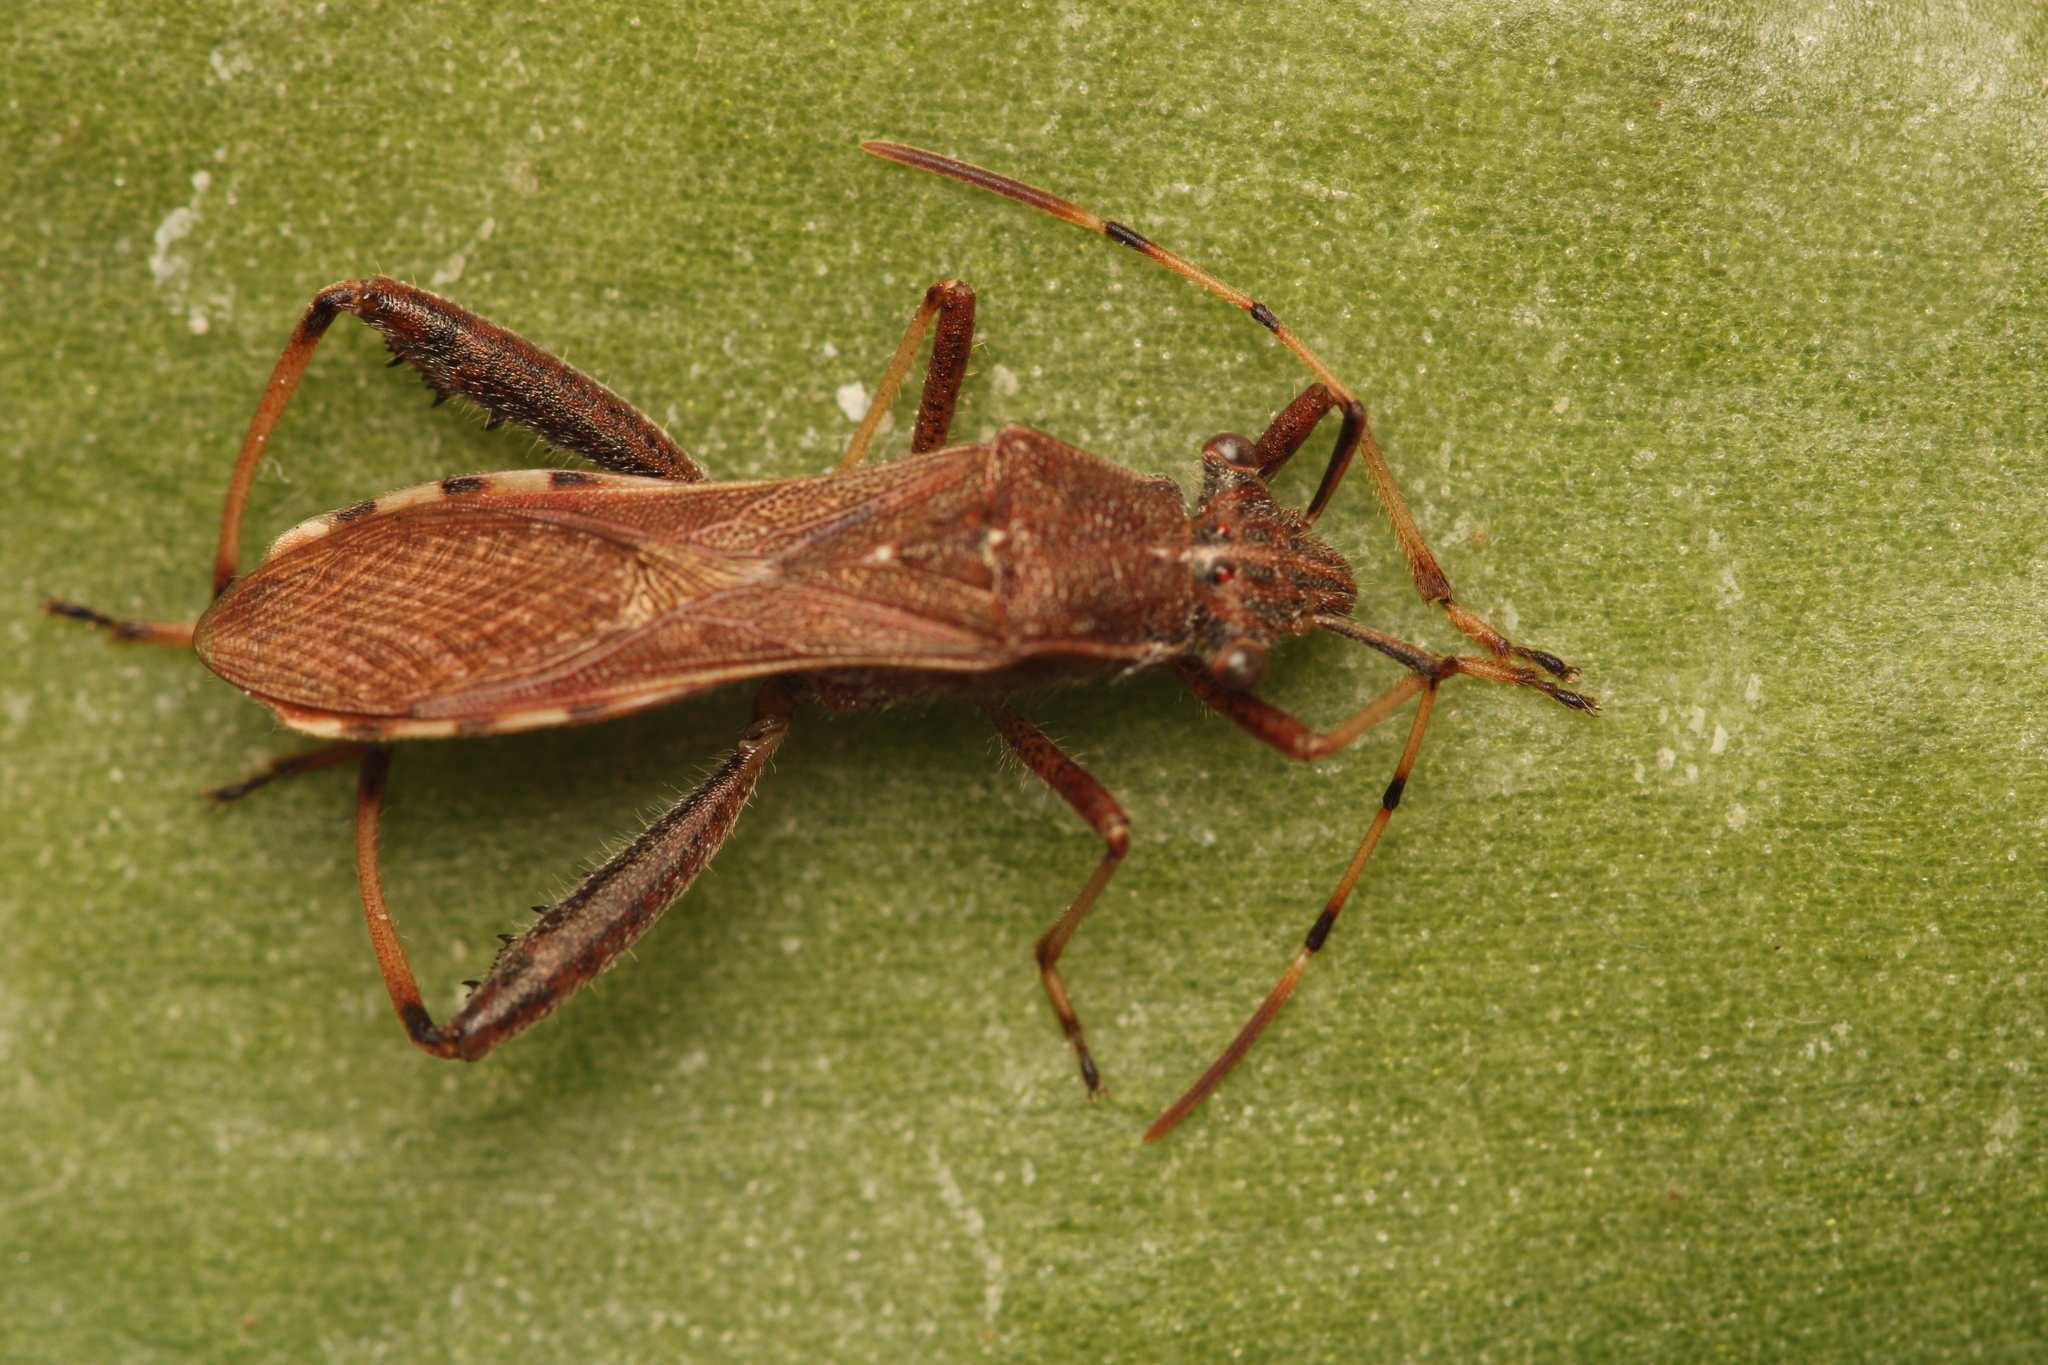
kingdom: Animalia
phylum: Arthropoda
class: Insecta
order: Hemiptera
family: Alydidae
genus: Camptopus
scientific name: Camptopus lateralis
